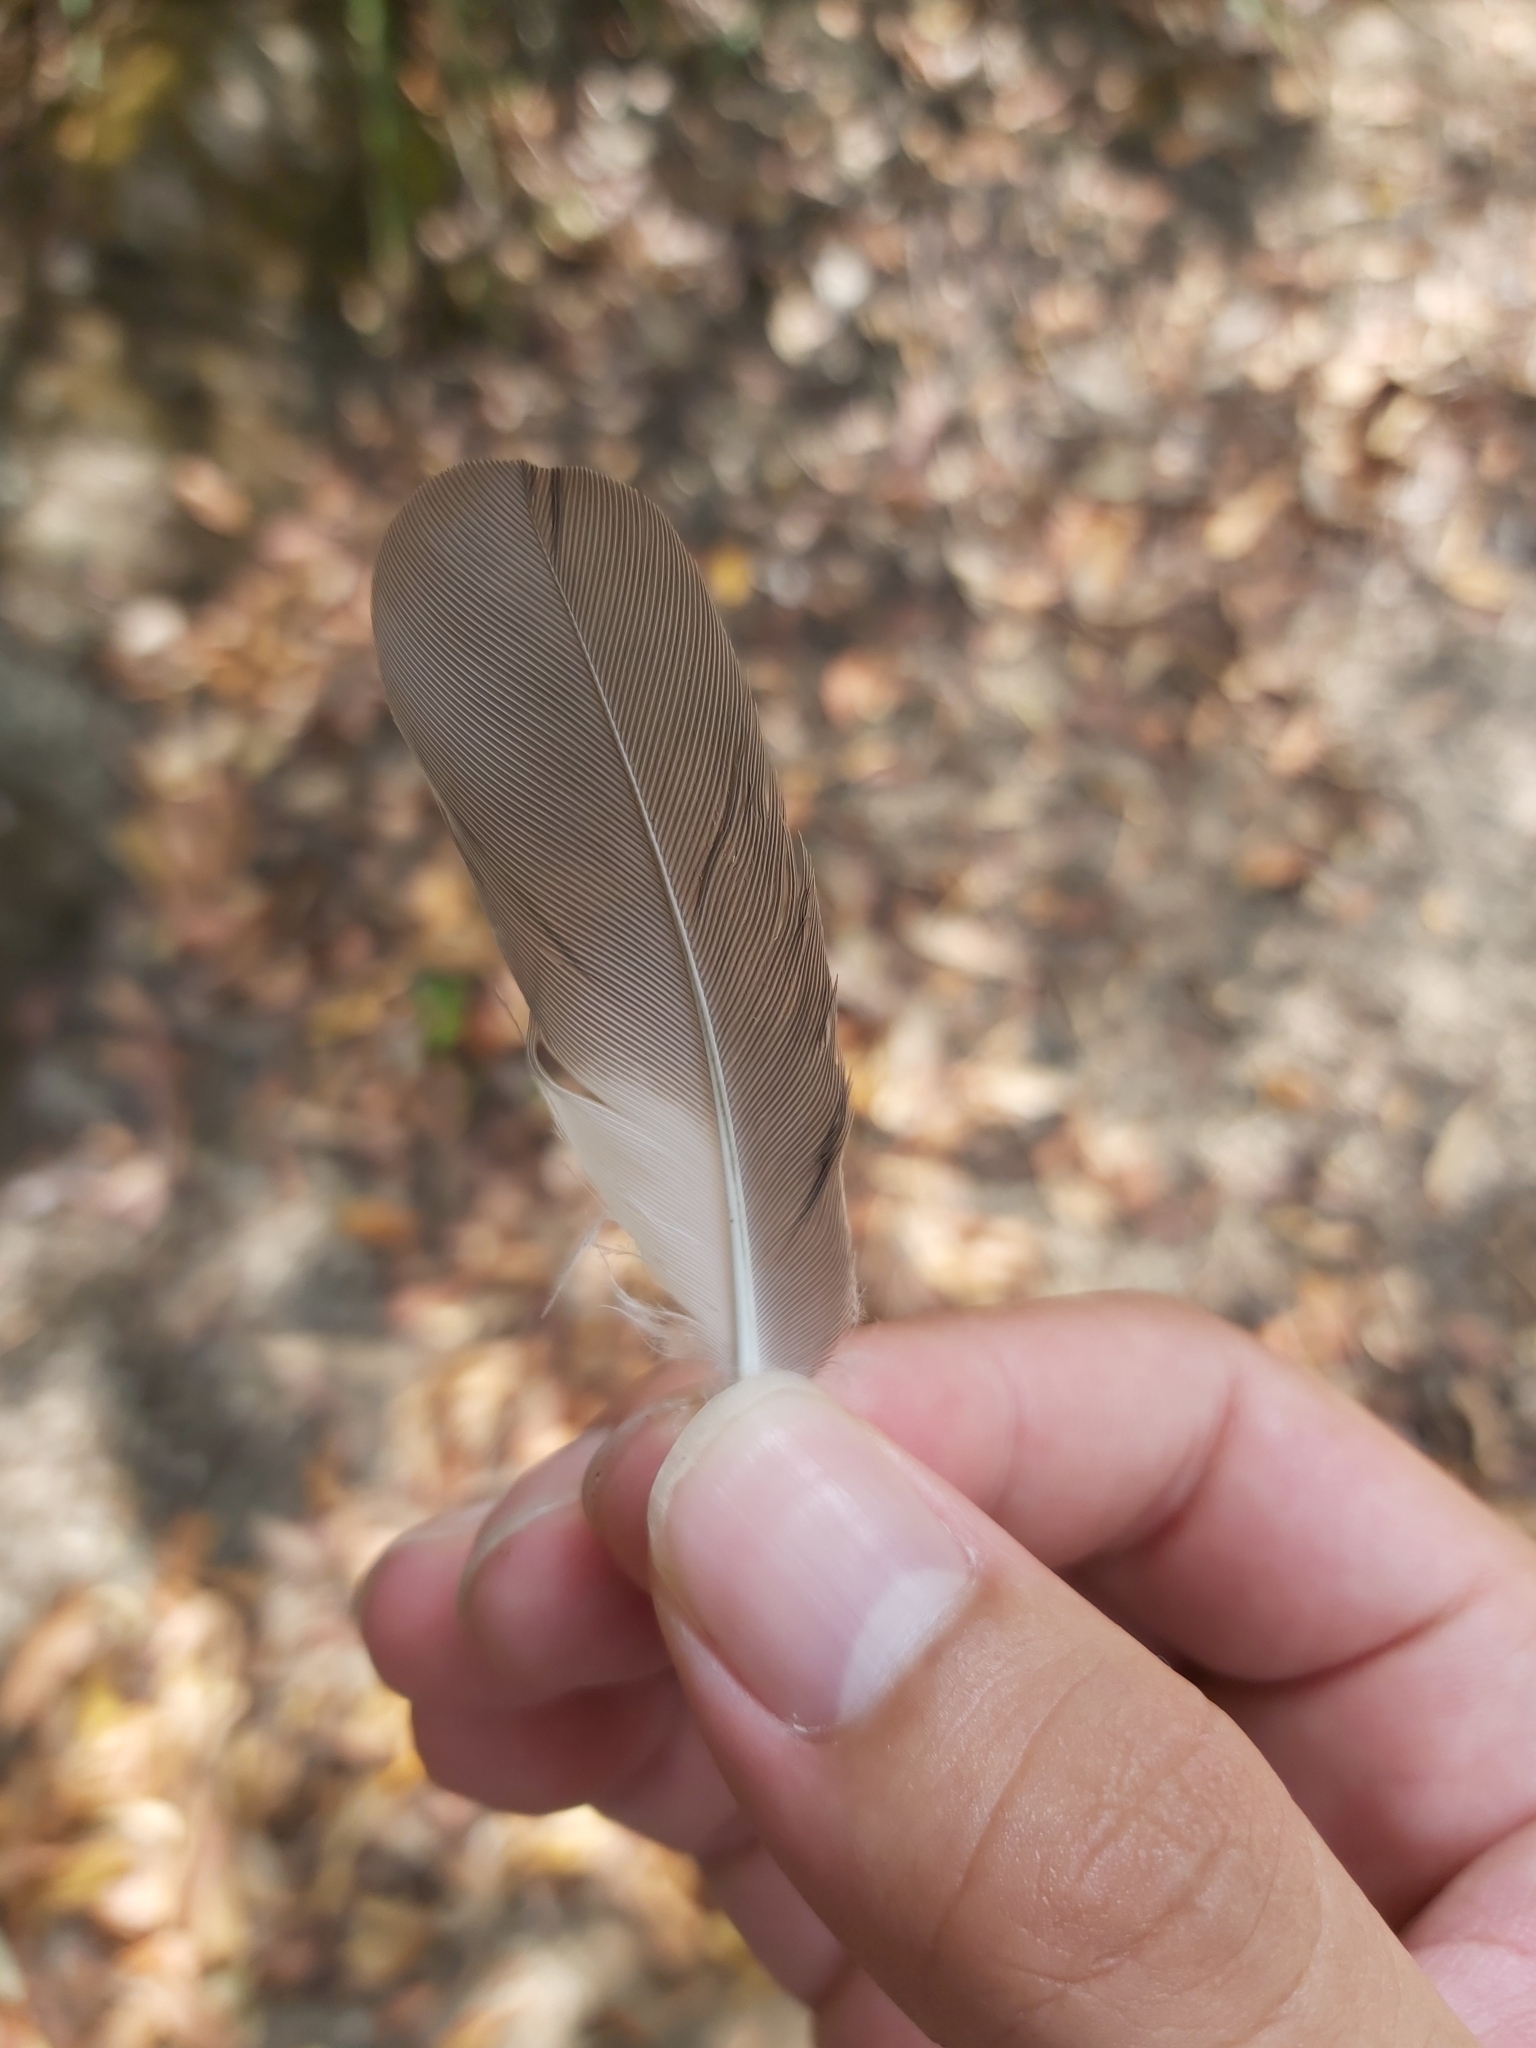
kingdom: Animalia
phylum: Chordata
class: Aves
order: Cuculiformes
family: Cuculidae
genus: Cacomantis
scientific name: Cacomantis flabelliformis
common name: Fan-tailed cuckoo
